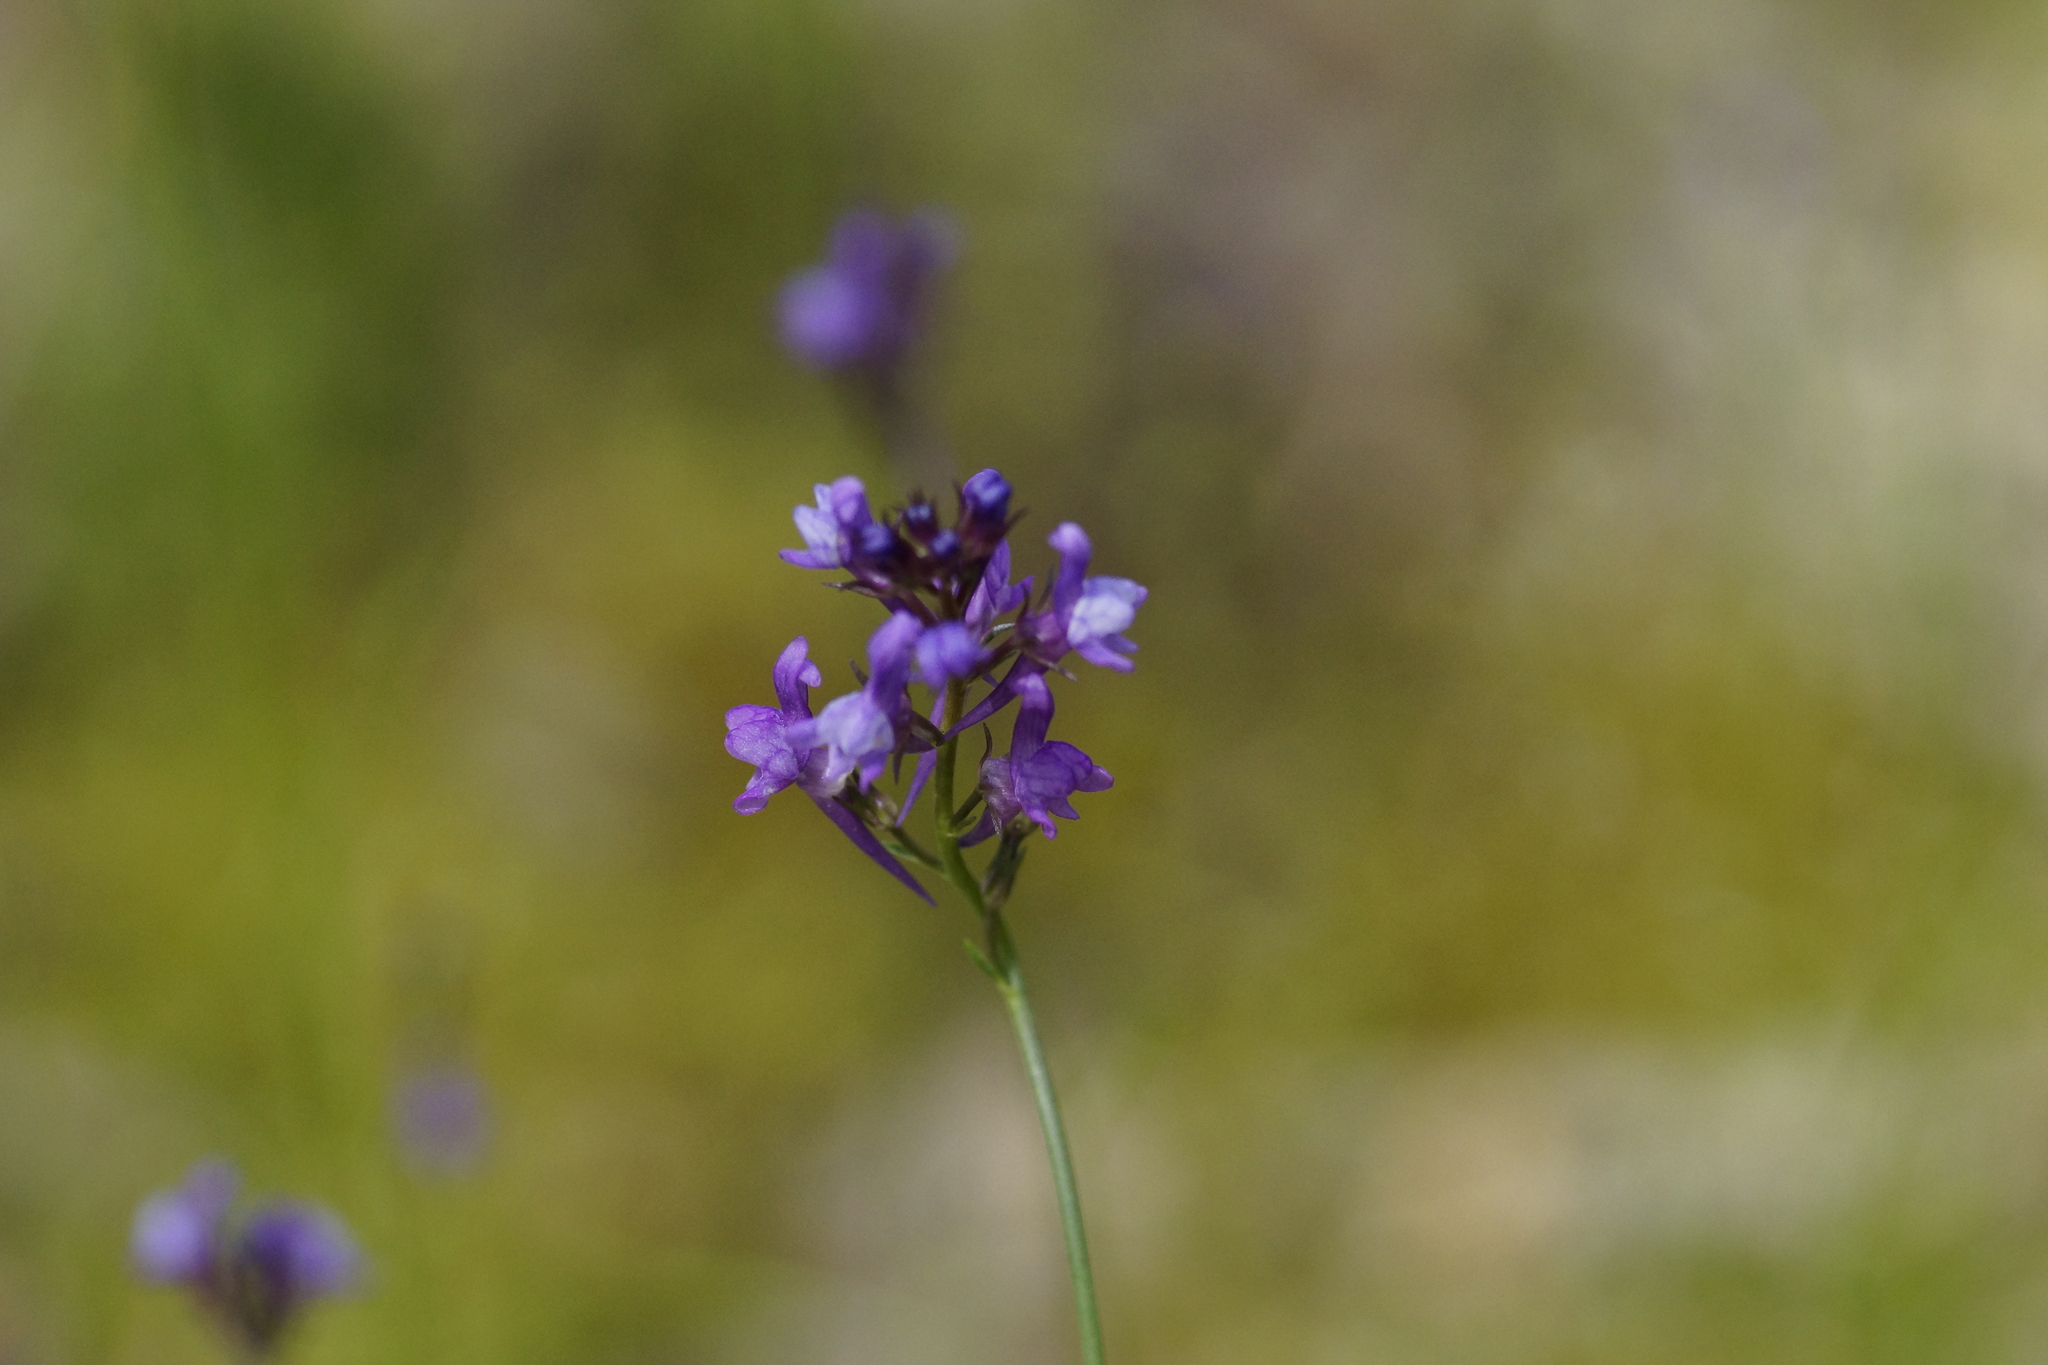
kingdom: Plantae
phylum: Tracheophyta
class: Magnoliopsida
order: Lamiales
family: Plantaginaceae
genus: Linaria
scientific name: Linaria pelisseriana
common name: Jersey toadflax
